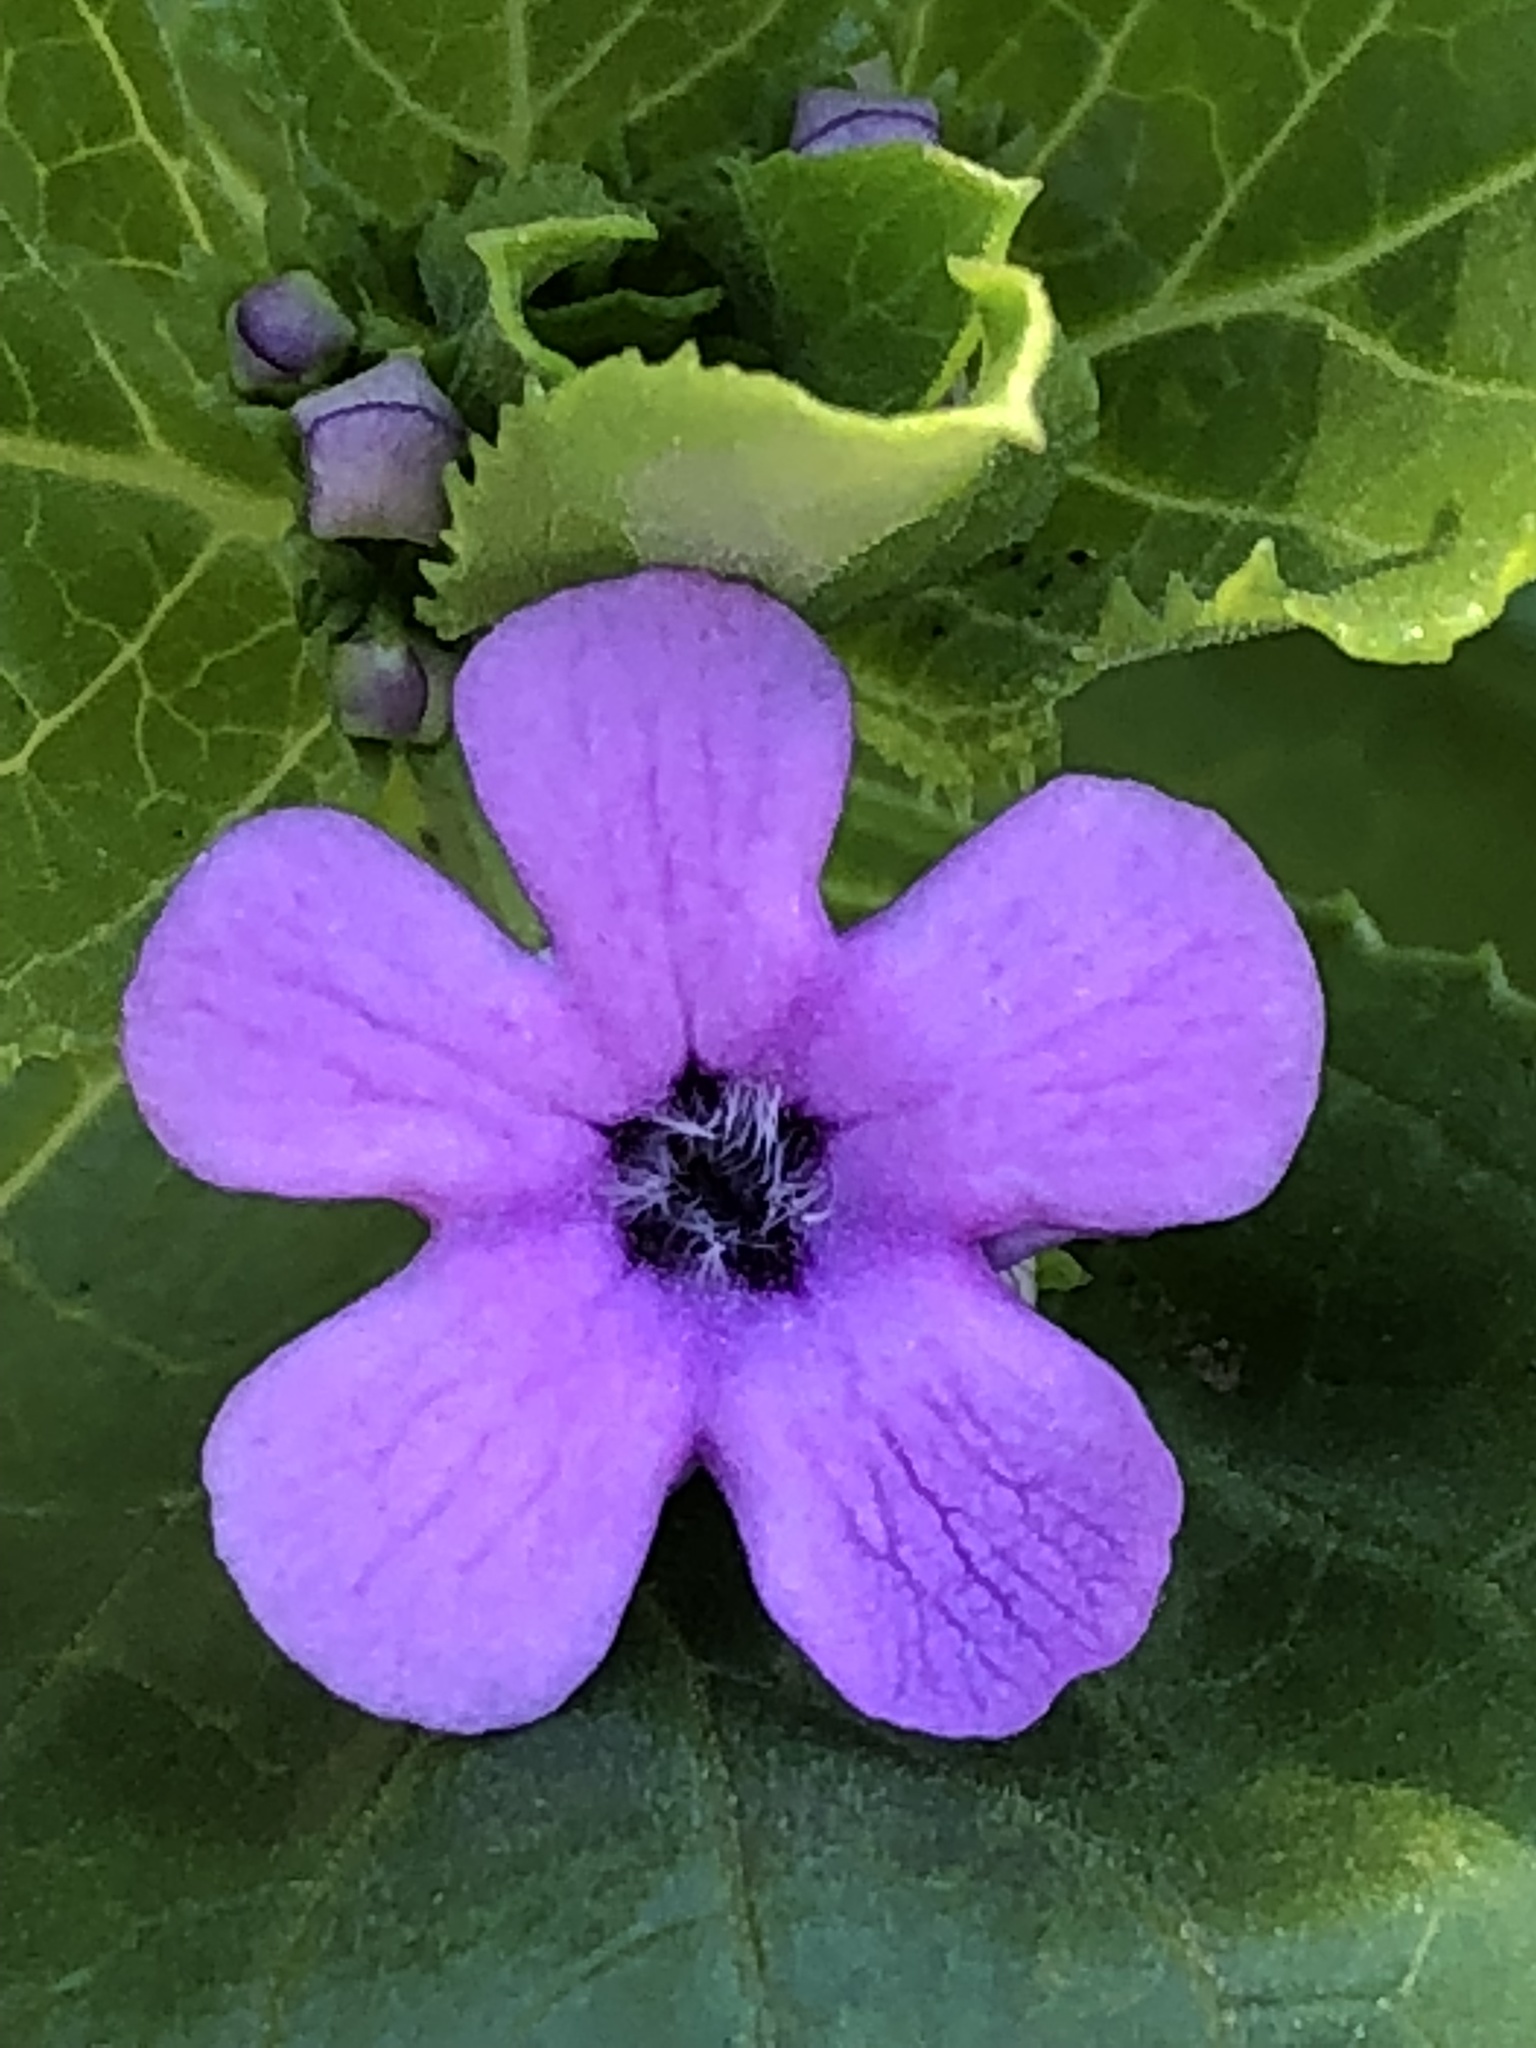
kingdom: Plantae
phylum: Tracheophyta
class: Magnoliopsida
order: Lamiales
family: Scrophulariaceae
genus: Teedia
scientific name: Teedia lucida
